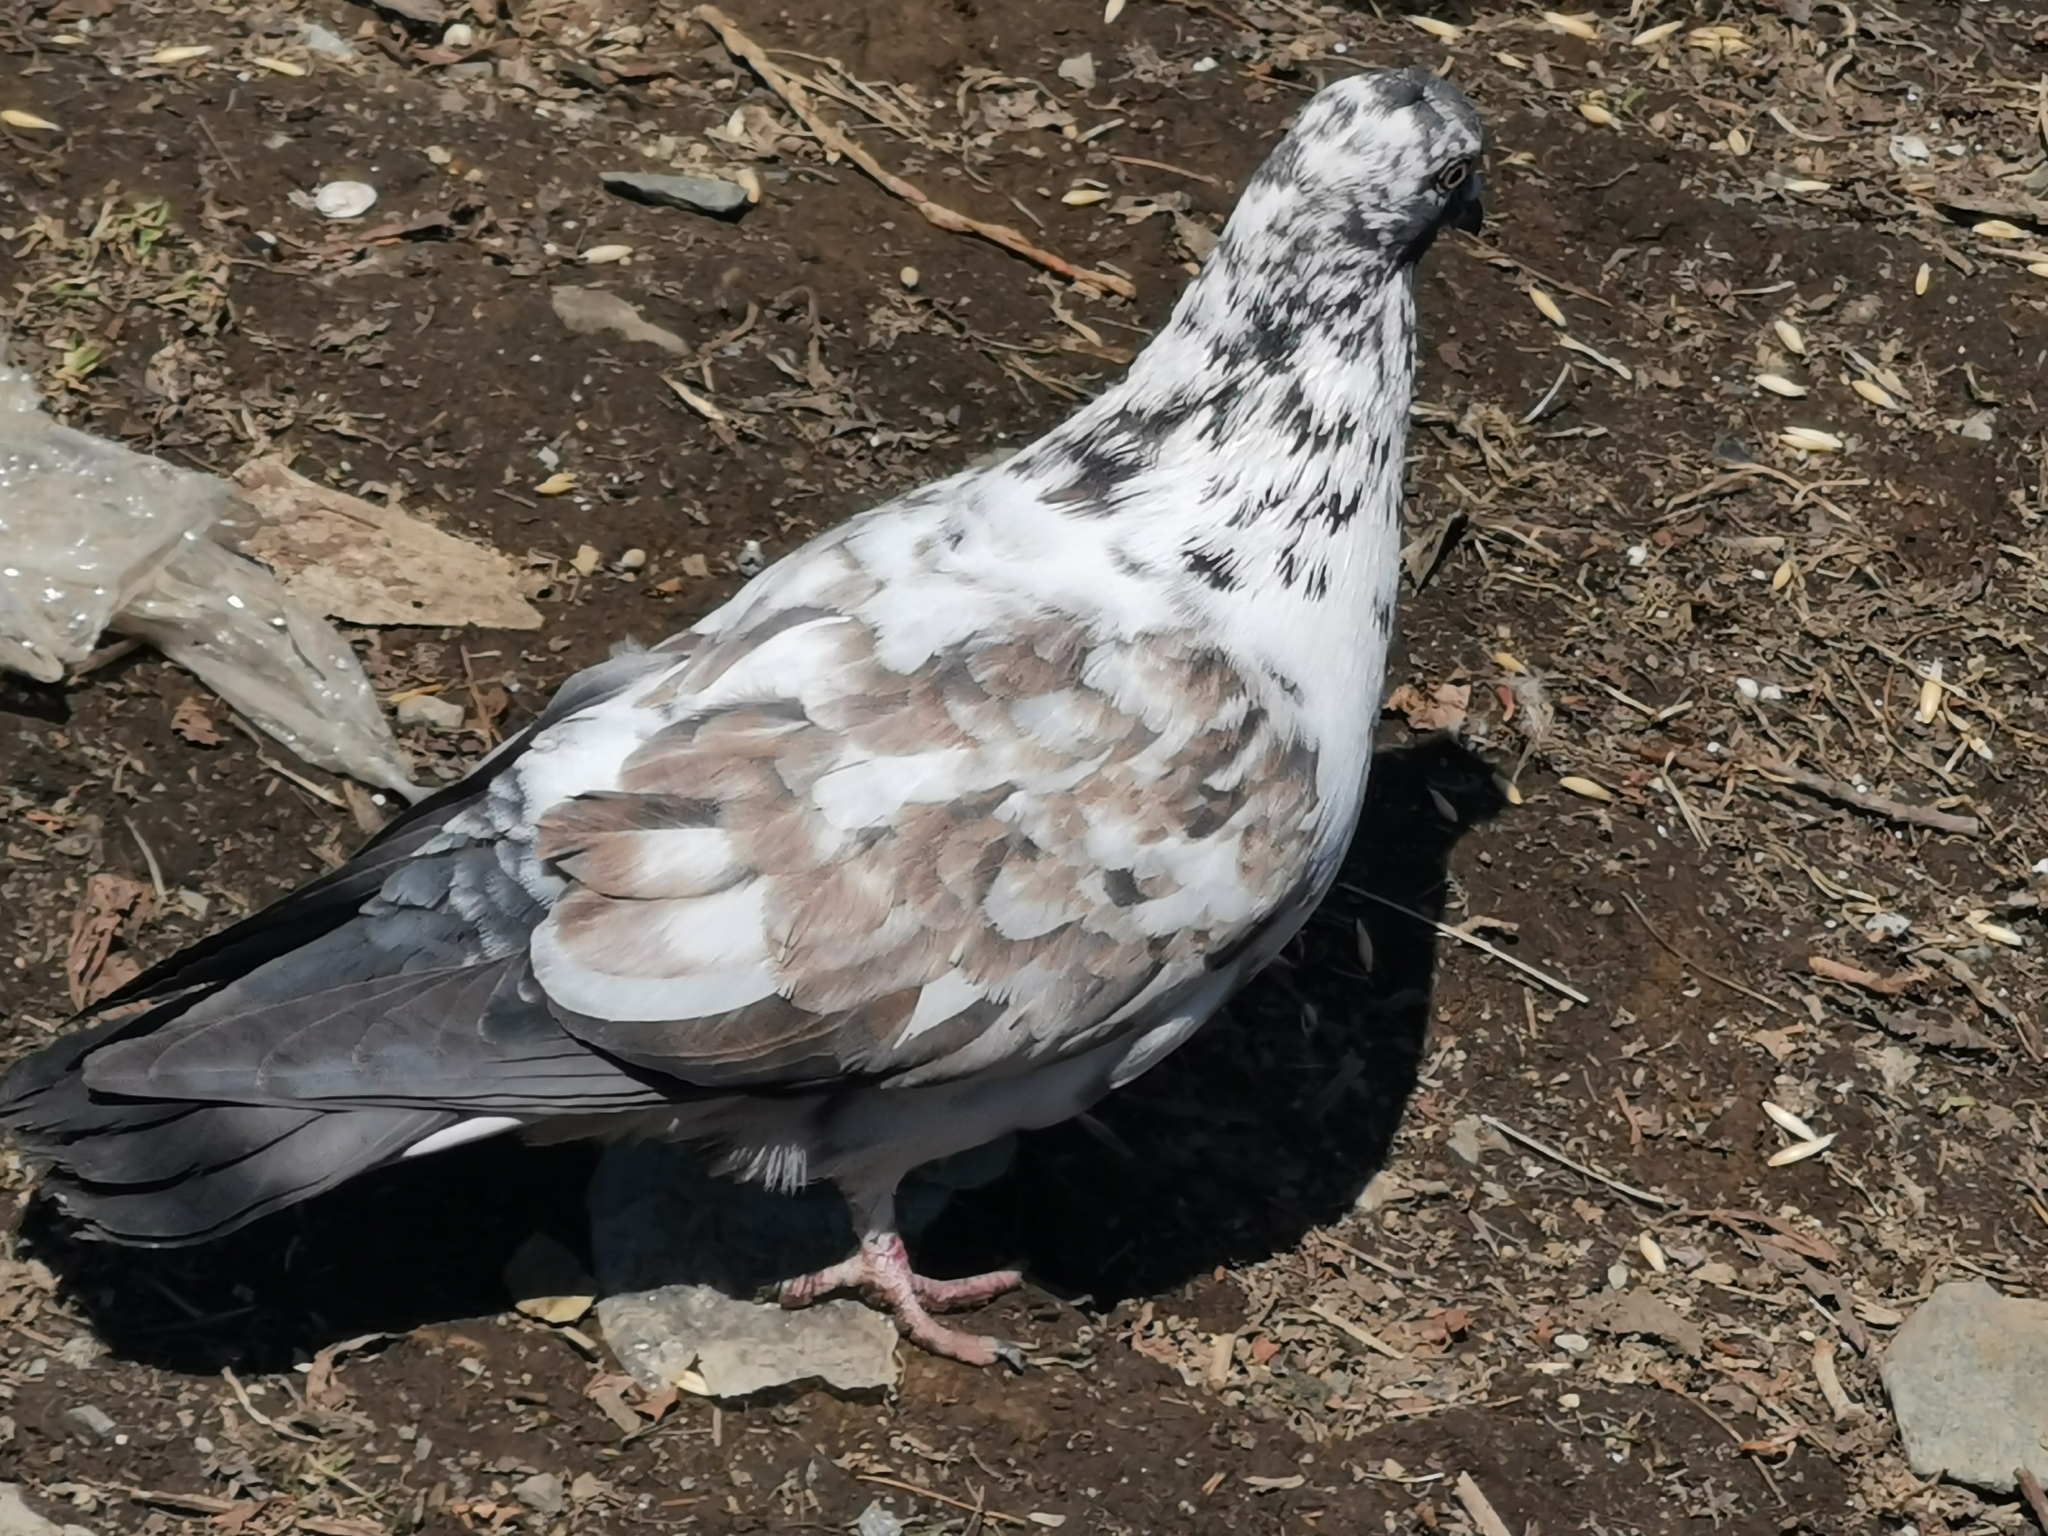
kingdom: Animalia
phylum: Chordata
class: Aves
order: Columbiformes
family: Columbidae
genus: Columba
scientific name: Columba livia
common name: Rock pigeon
